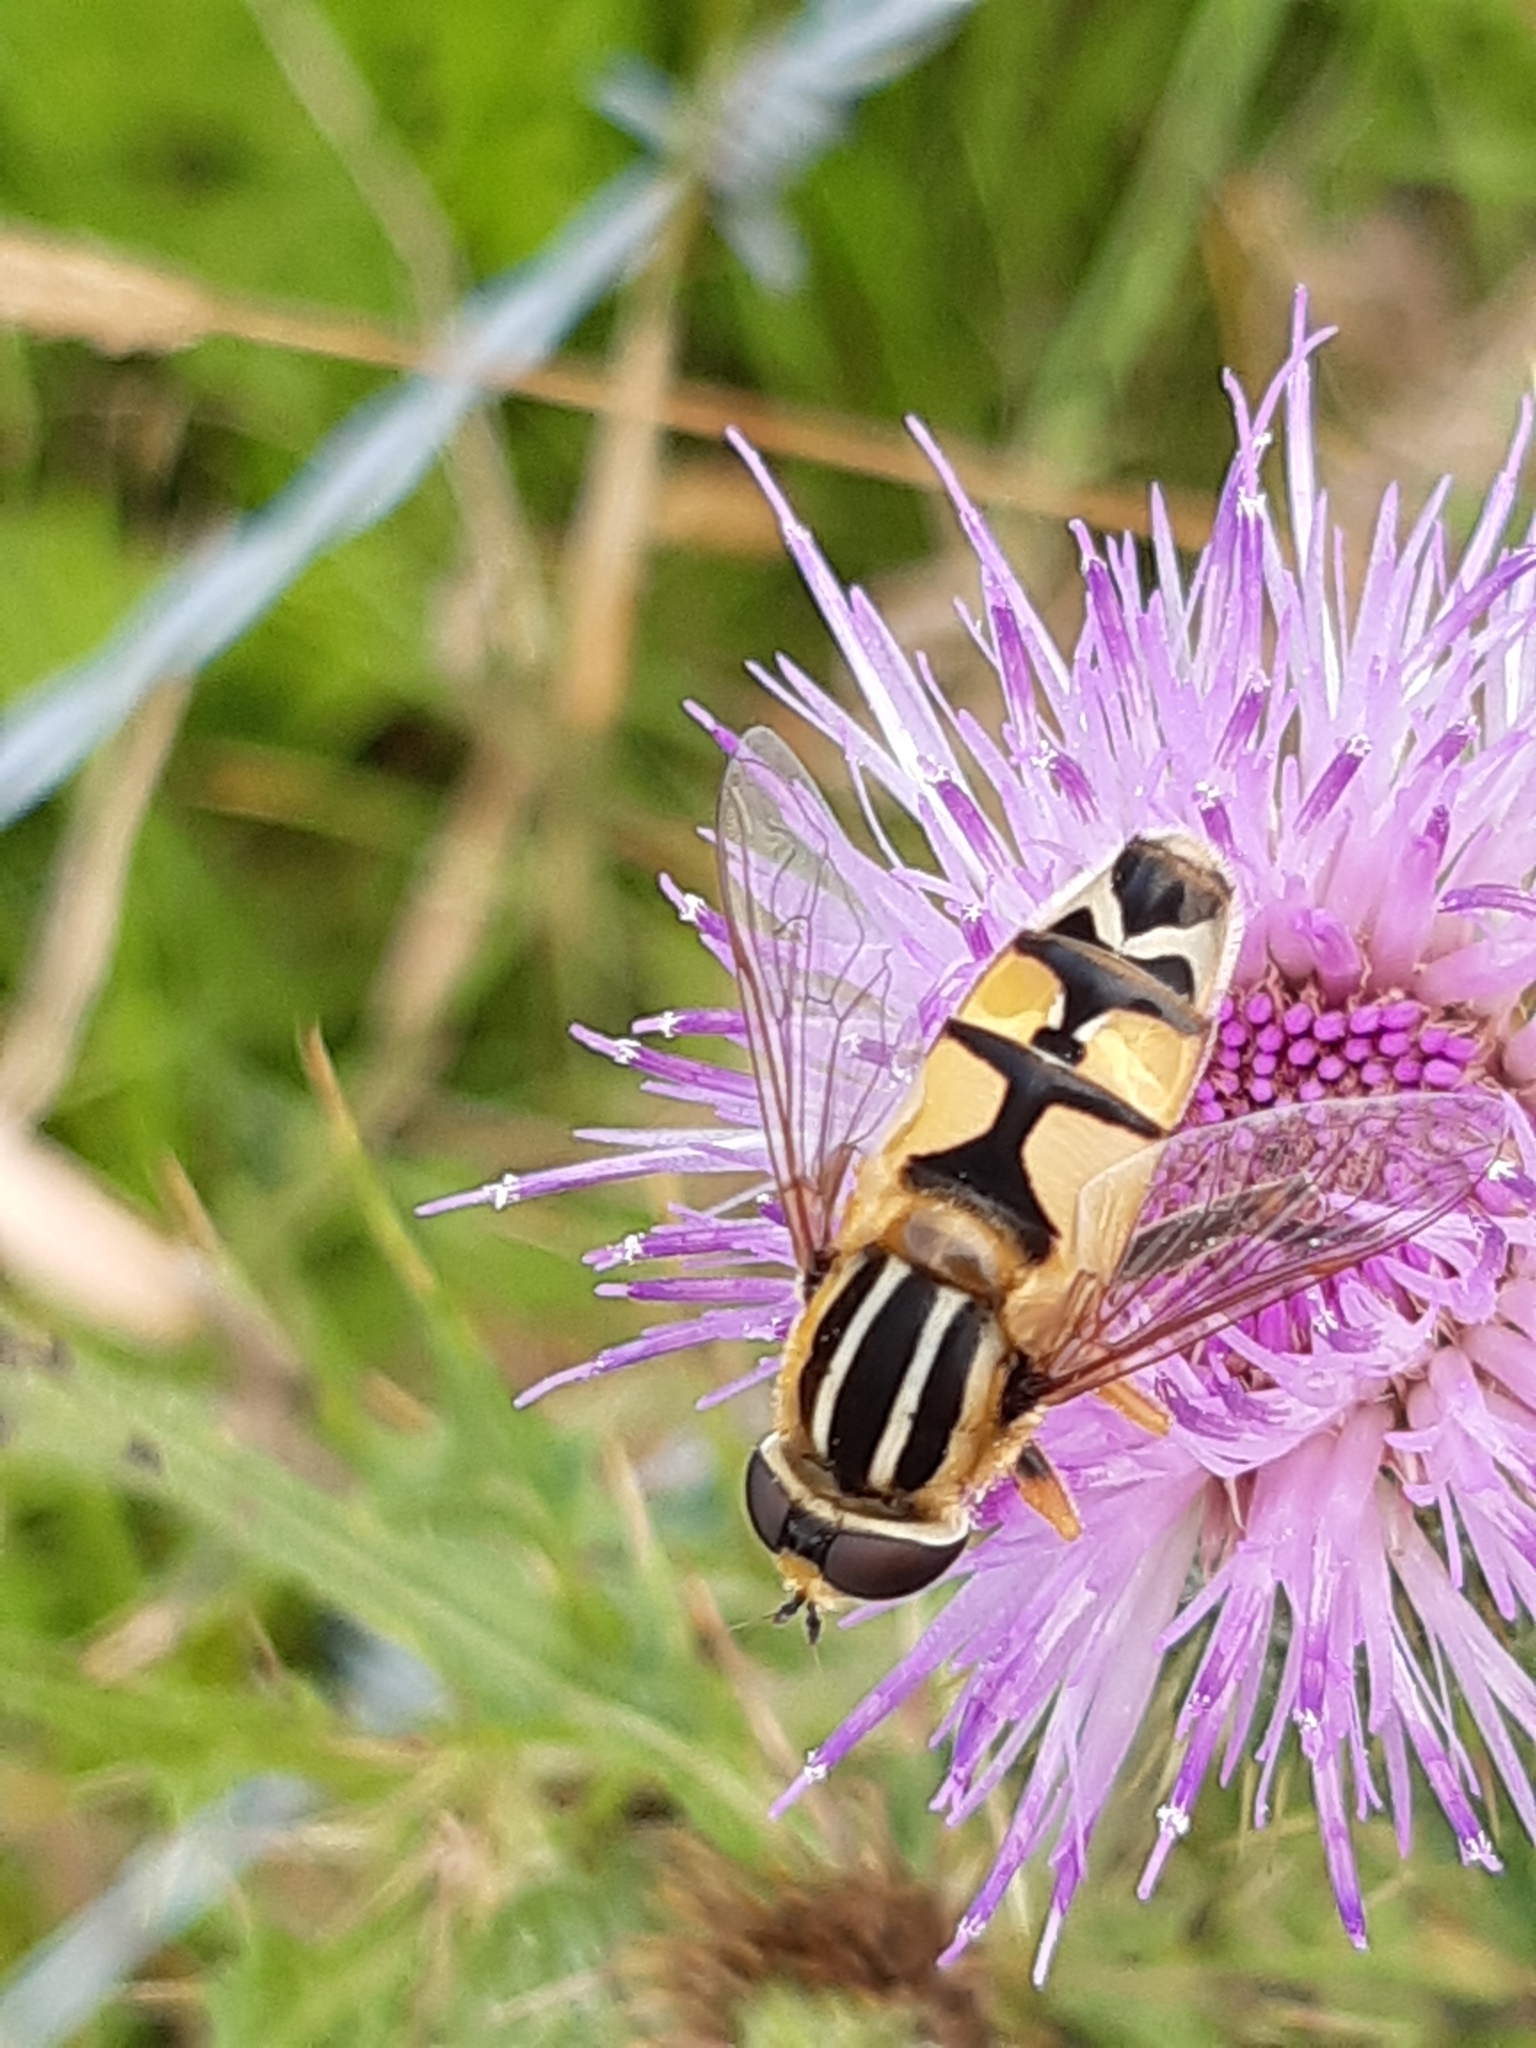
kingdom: Animalia
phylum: Arthropoda
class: Insecta
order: Diptera
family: Syrphidae
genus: Helophilus
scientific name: Helophilus trivittatus
